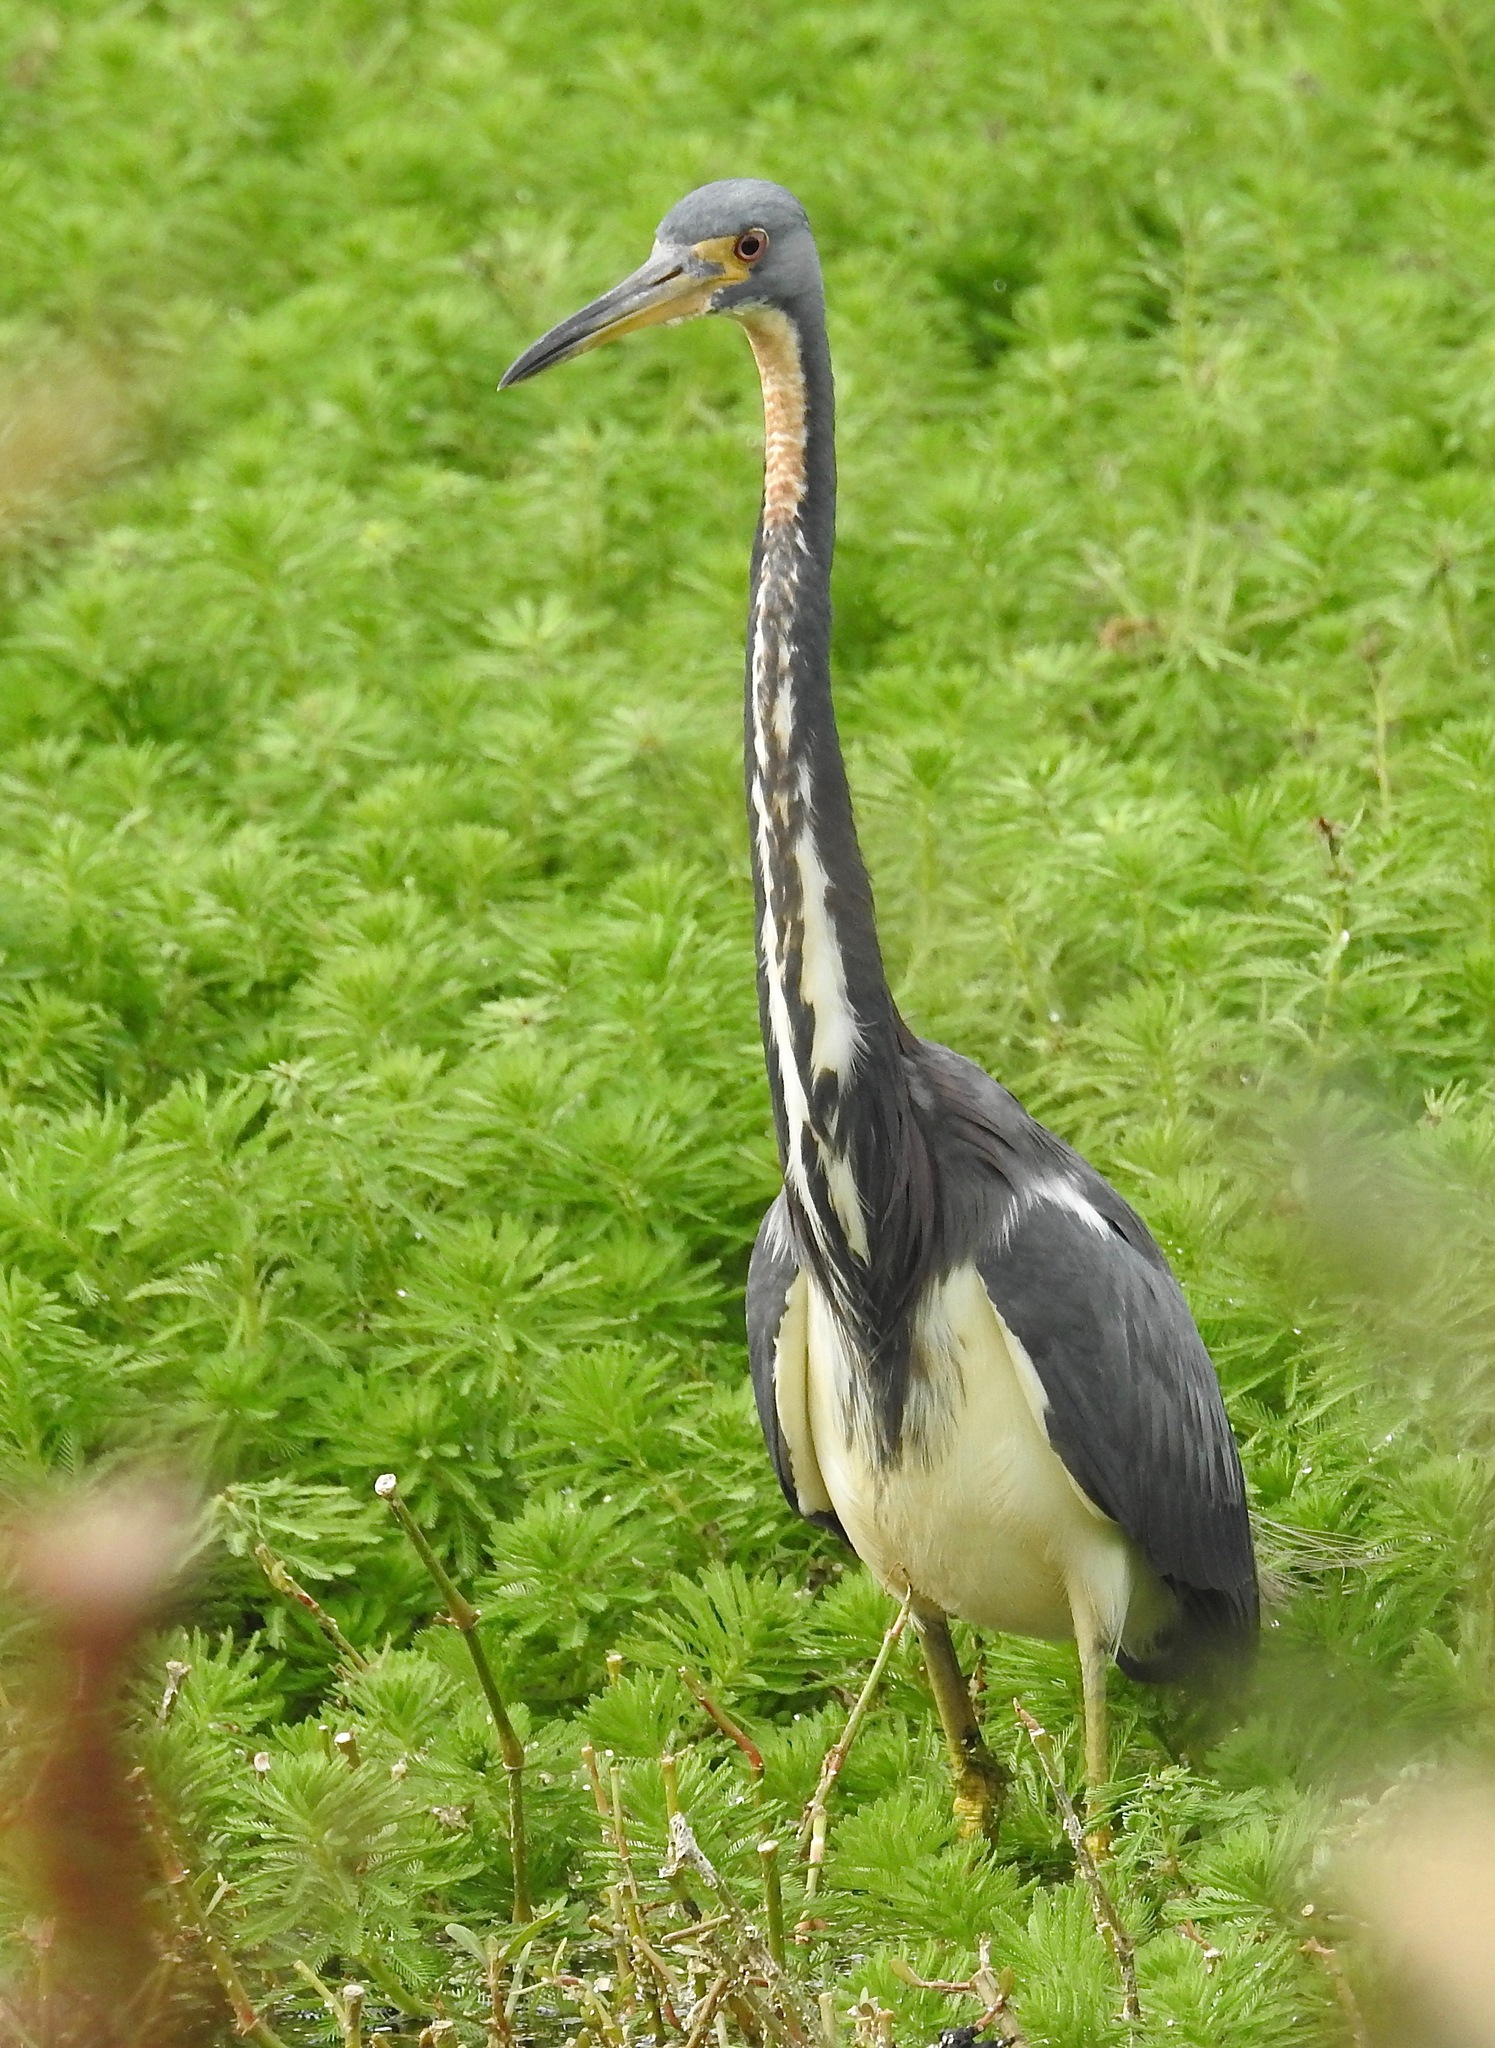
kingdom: Animalia
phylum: Chordata
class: Aves
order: Pelecaniformes
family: Ardeidae
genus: Egretta
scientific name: Egretta tricolor
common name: Tricolored heron
